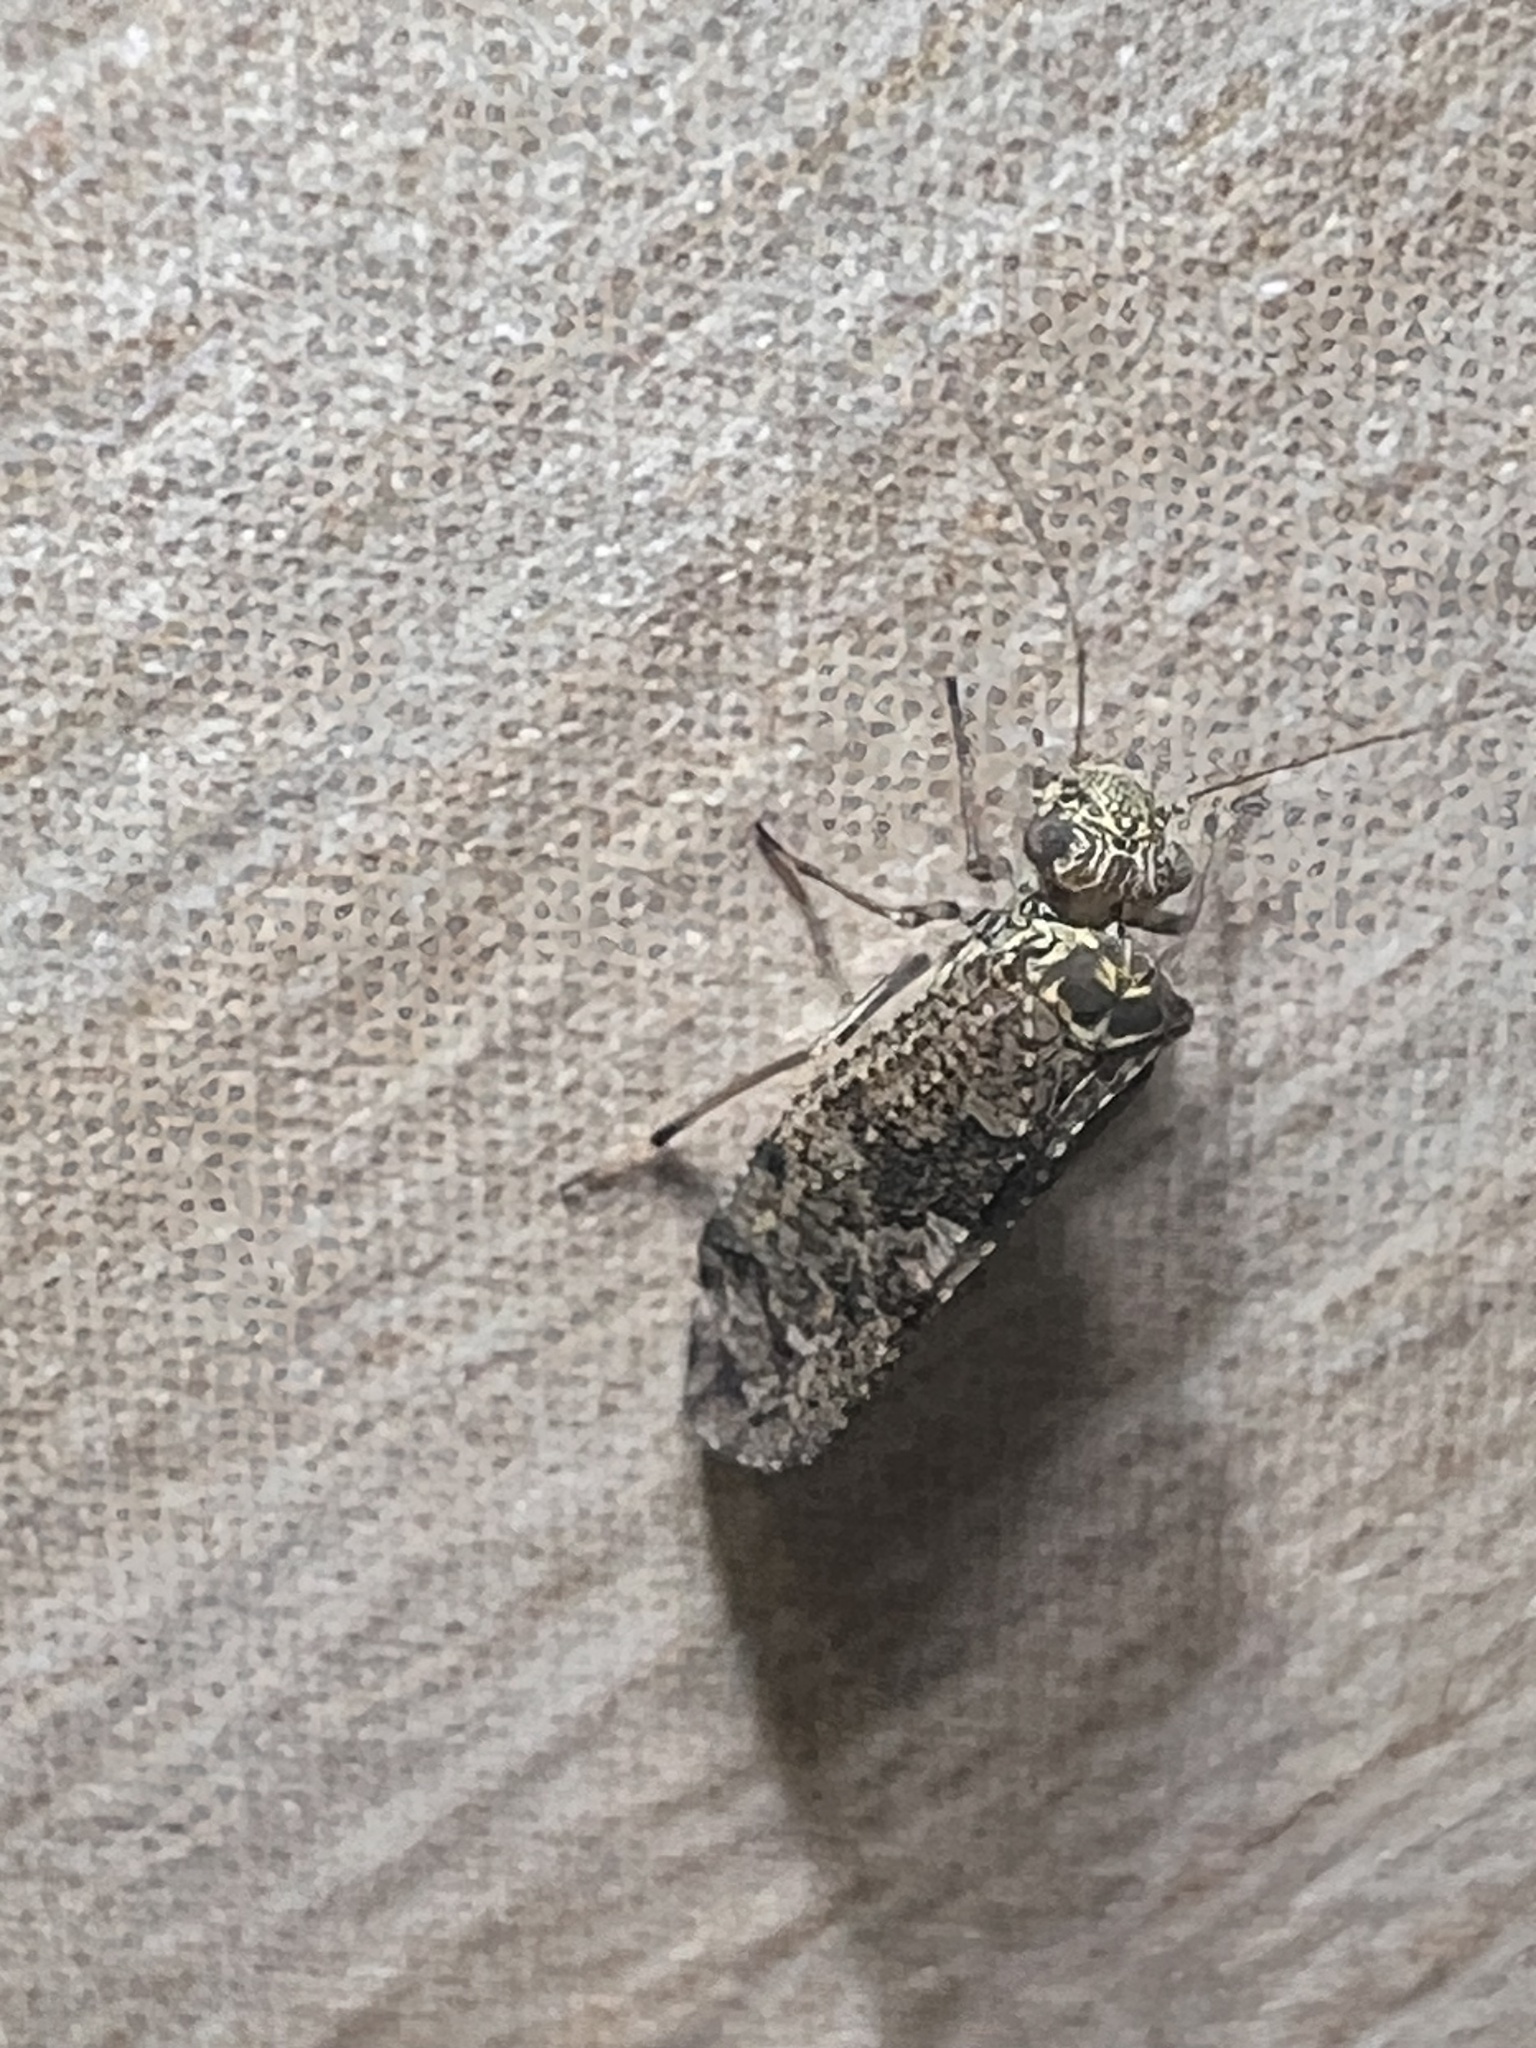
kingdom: Animalia
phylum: Arthropoda
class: Insecta
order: Psocodea
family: Myopsocidae
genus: Nimbopsocus
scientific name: Nimbopsocus australis
